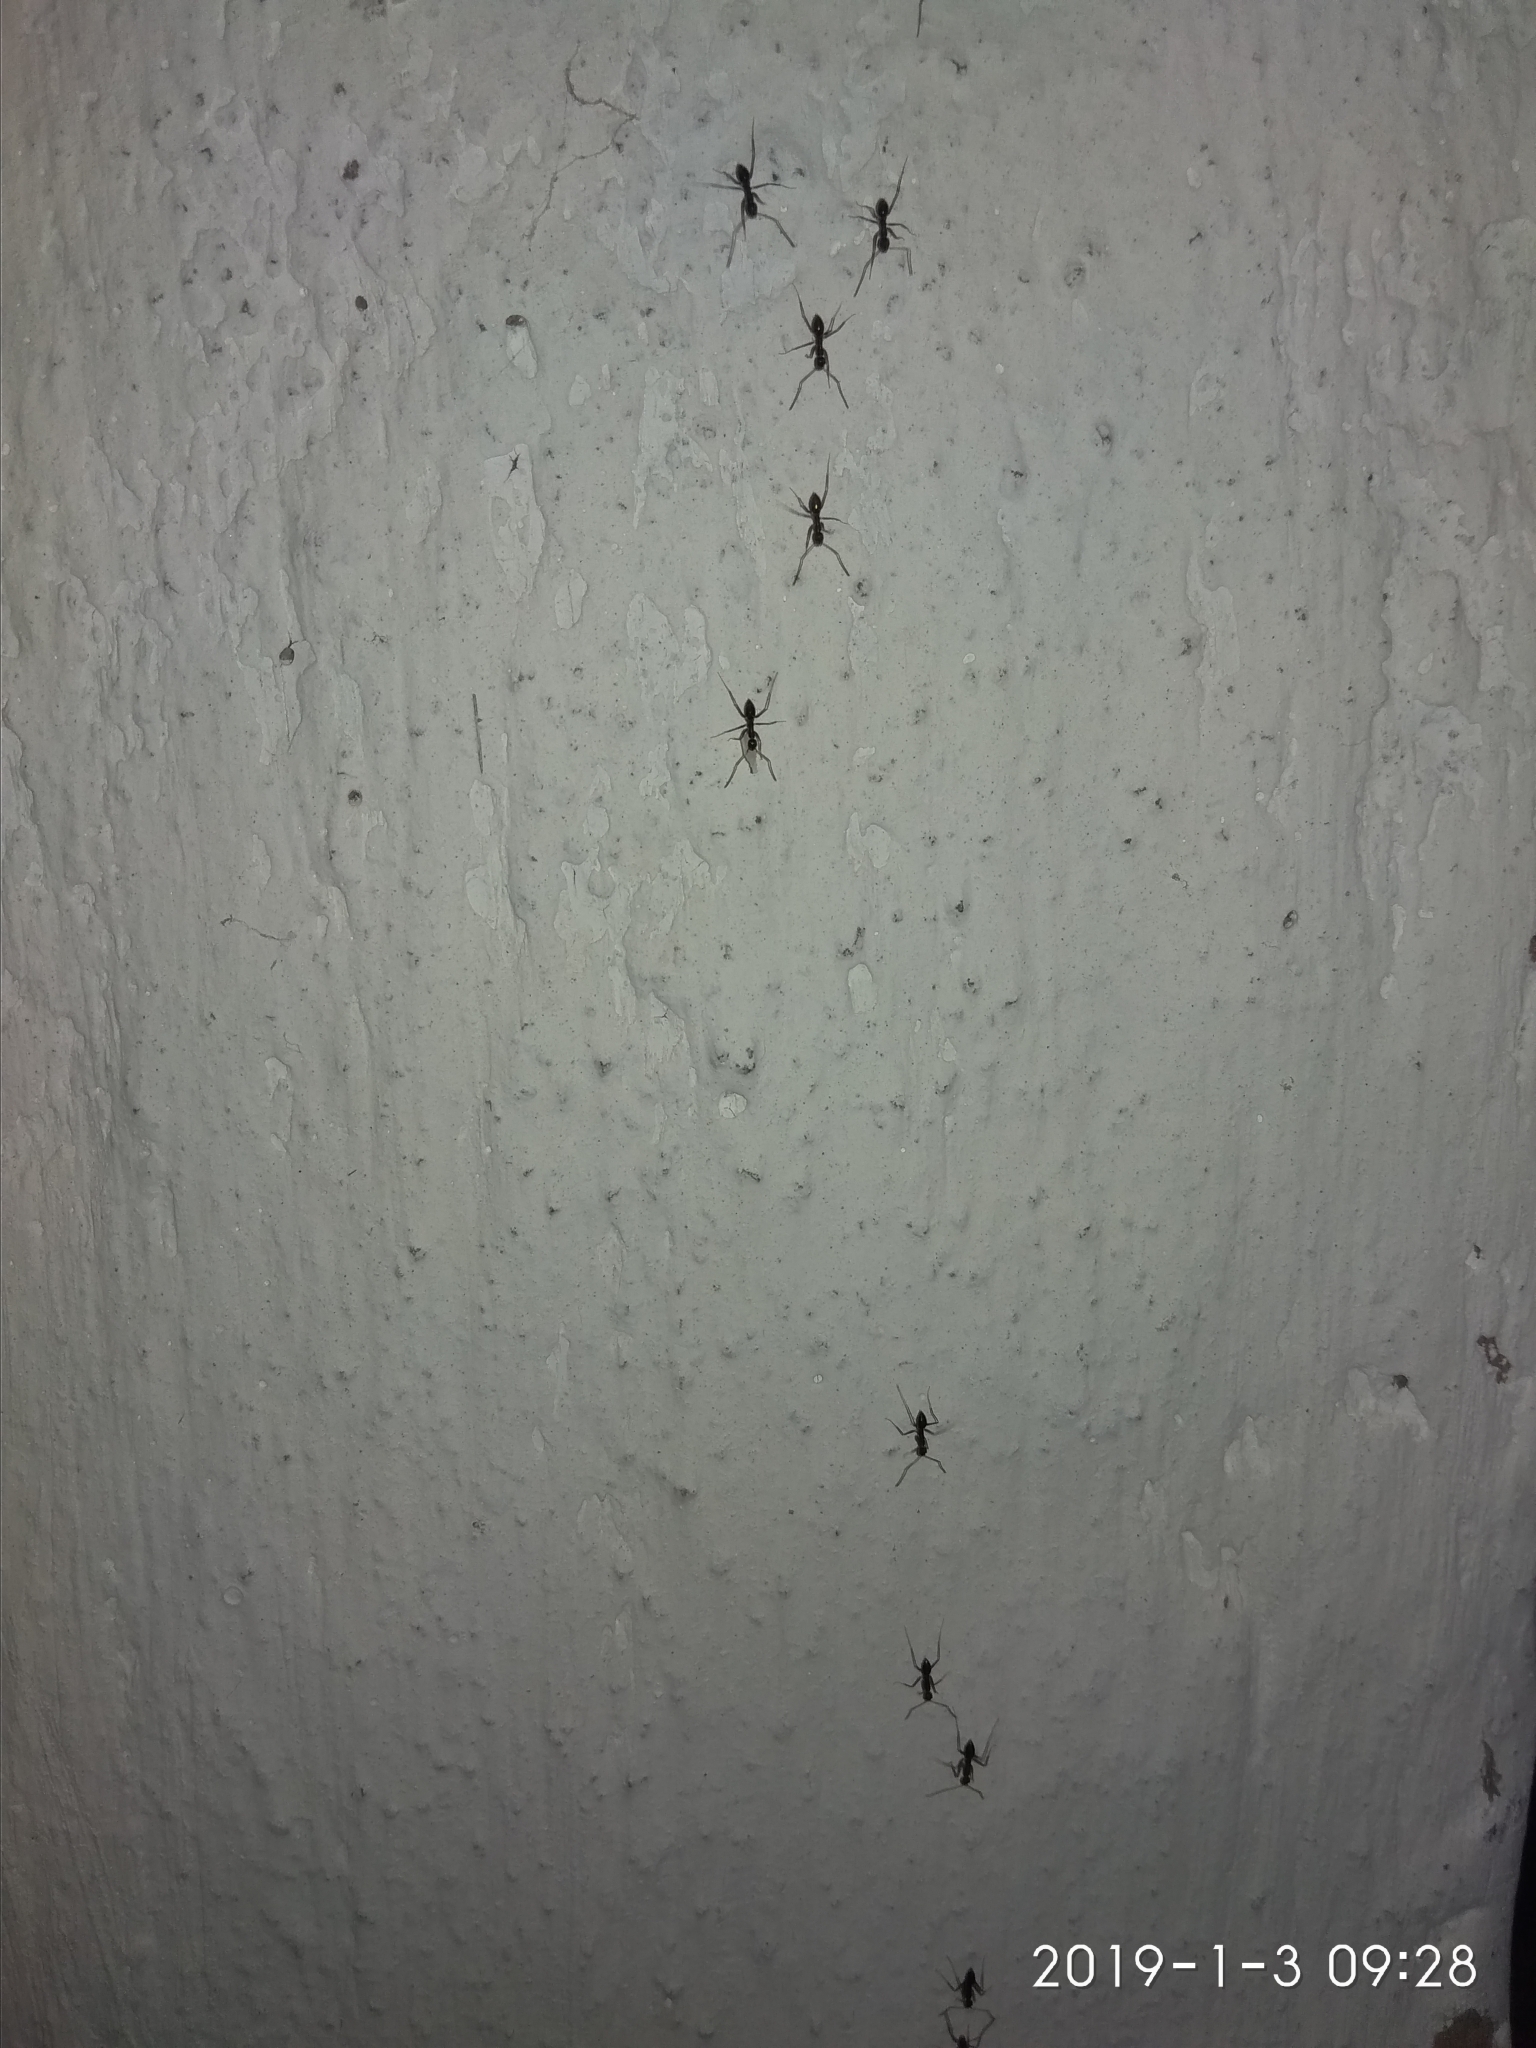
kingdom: Animalia
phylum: Arthropoda
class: Insecta
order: Hymenoptera
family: Formicidae
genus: Paratrechina
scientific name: Paratrechina longicornis
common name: Longhorned crazy ant
